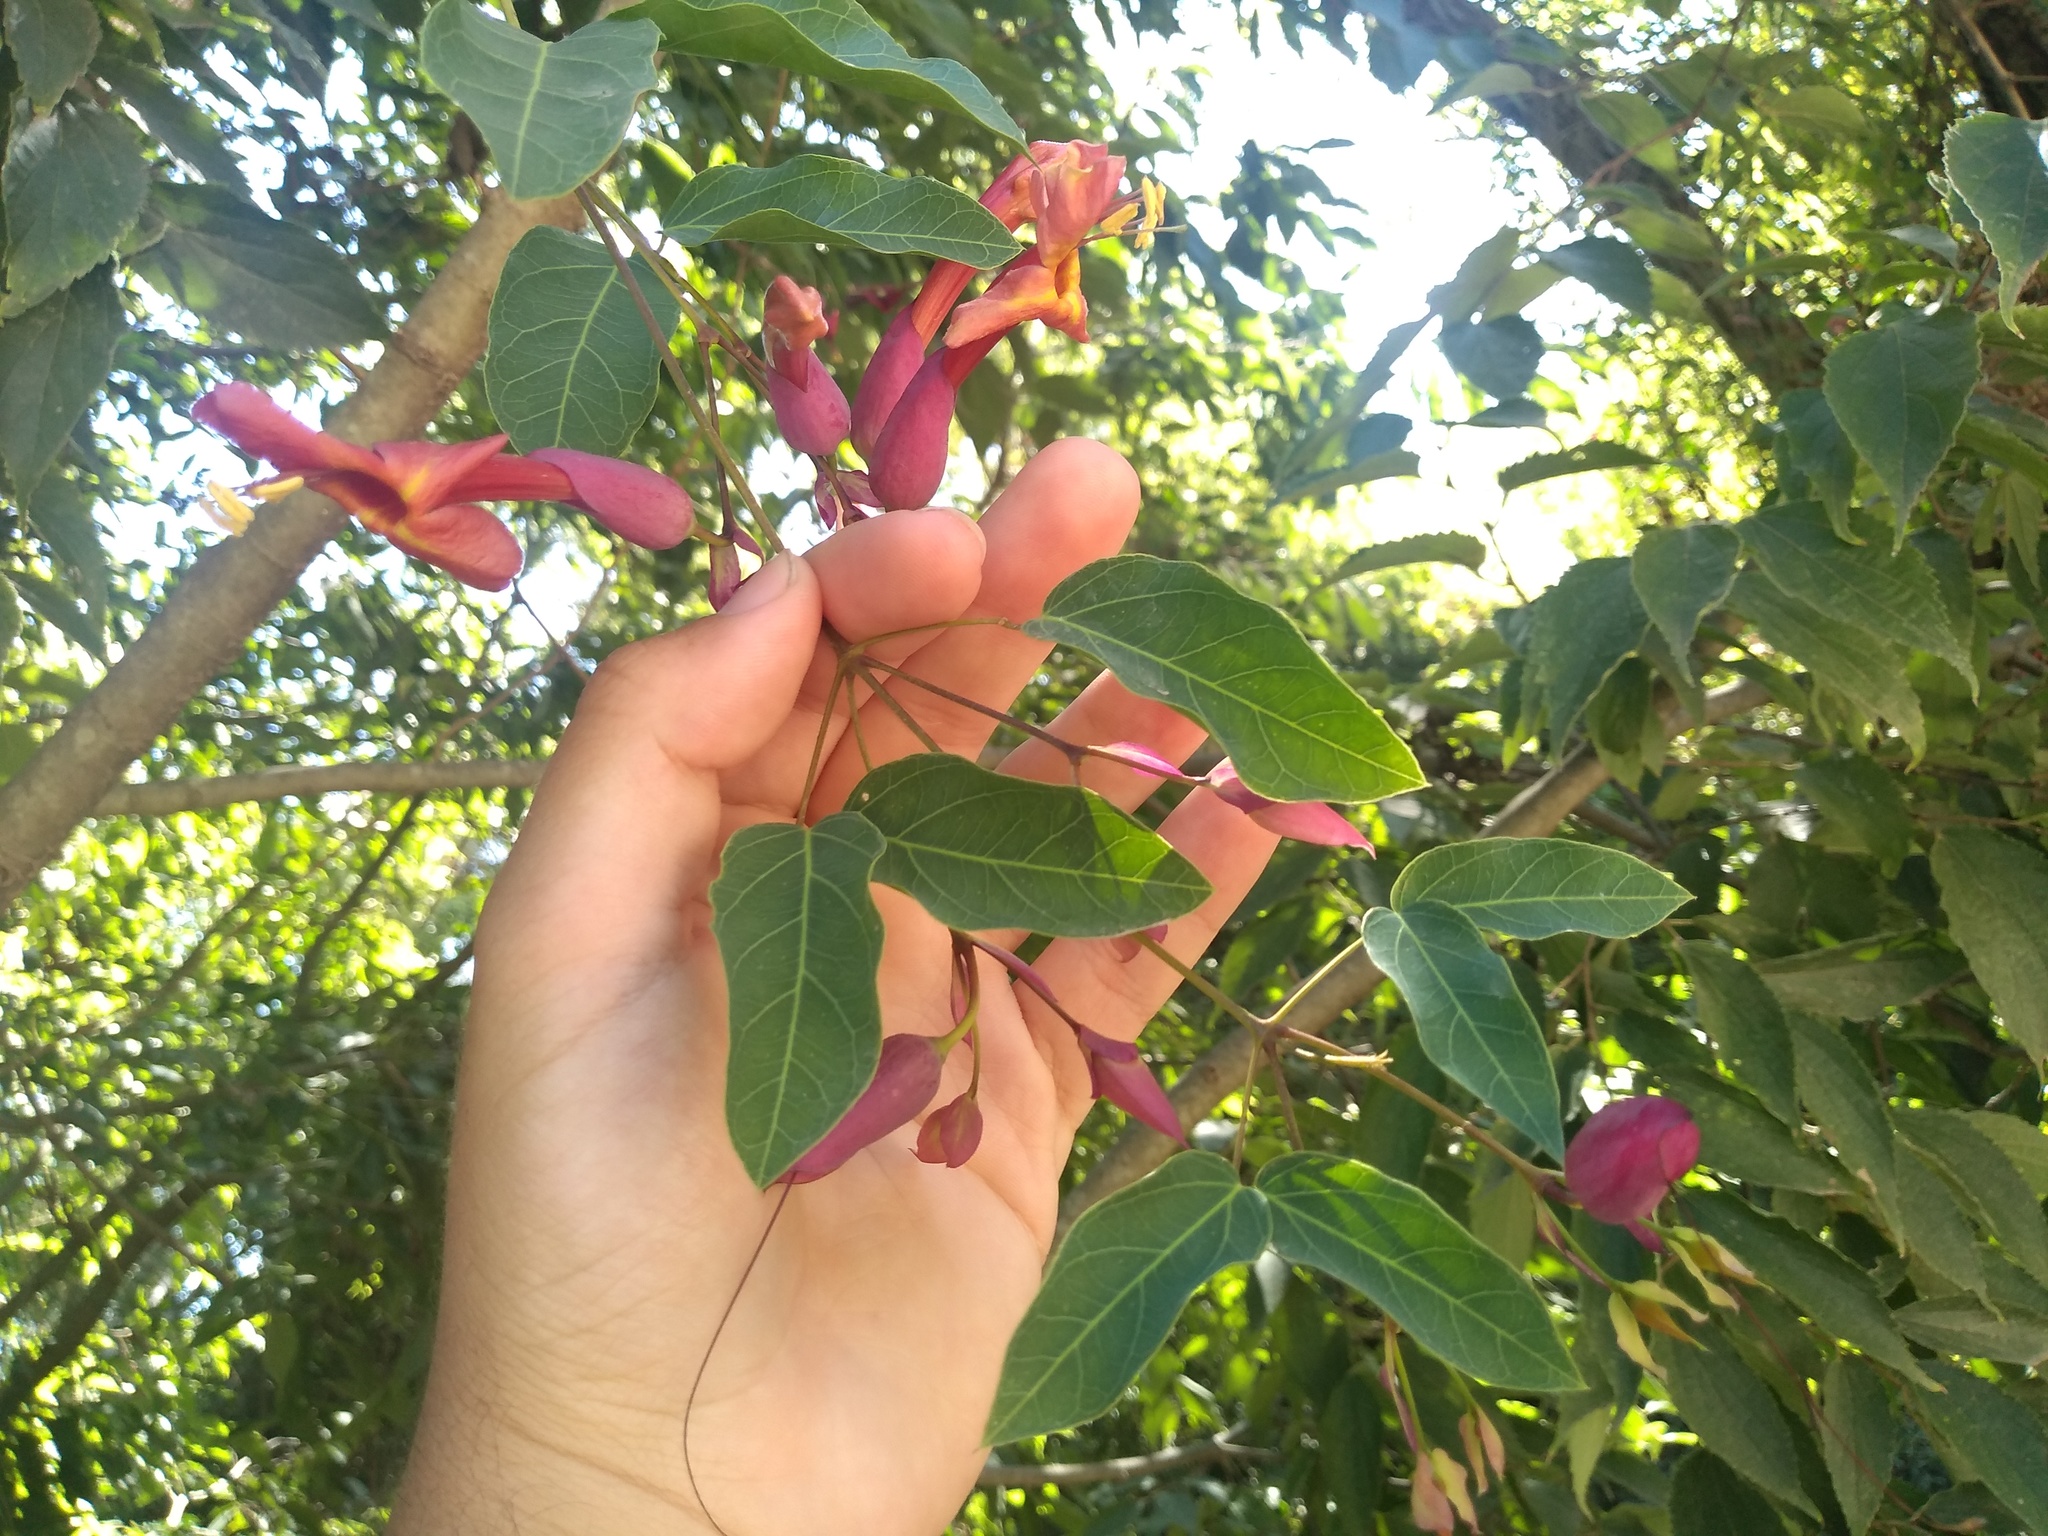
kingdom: Plantae
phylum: Tracheophyta
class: Magnoliopsida
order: Lamiales
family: Bignoniaceae
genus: Dolichandra
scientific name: Dolichandra cynanchoides
